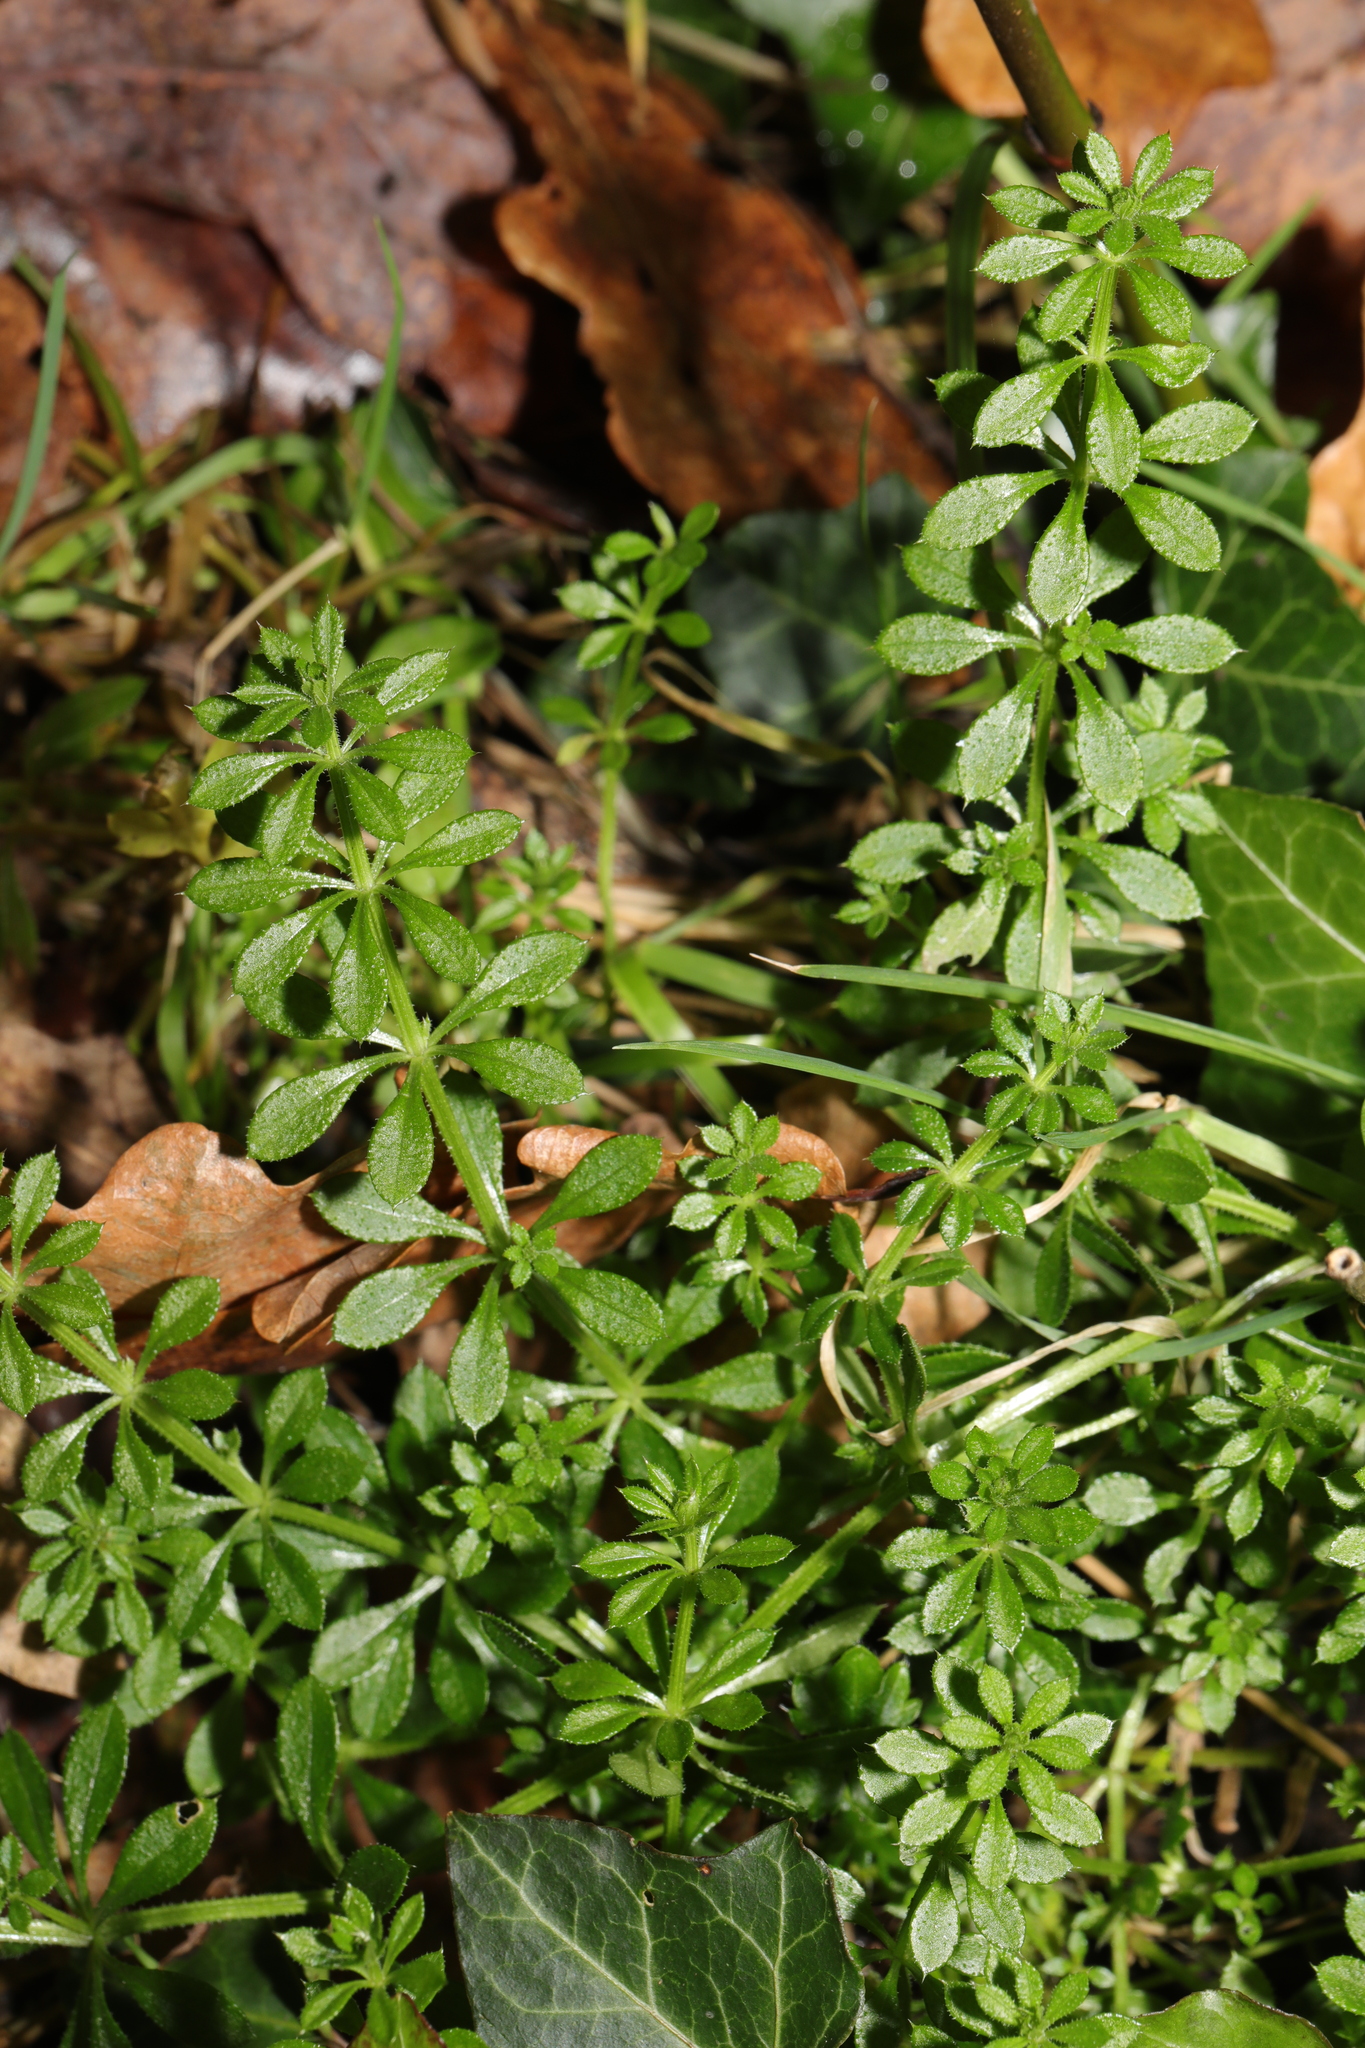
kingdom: Plantae
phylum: Tracheophyta
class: Magnoliopsida
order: Gentianales
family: Rubiaceae
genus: Galium
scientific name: Galium aparine
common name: Cleavers
